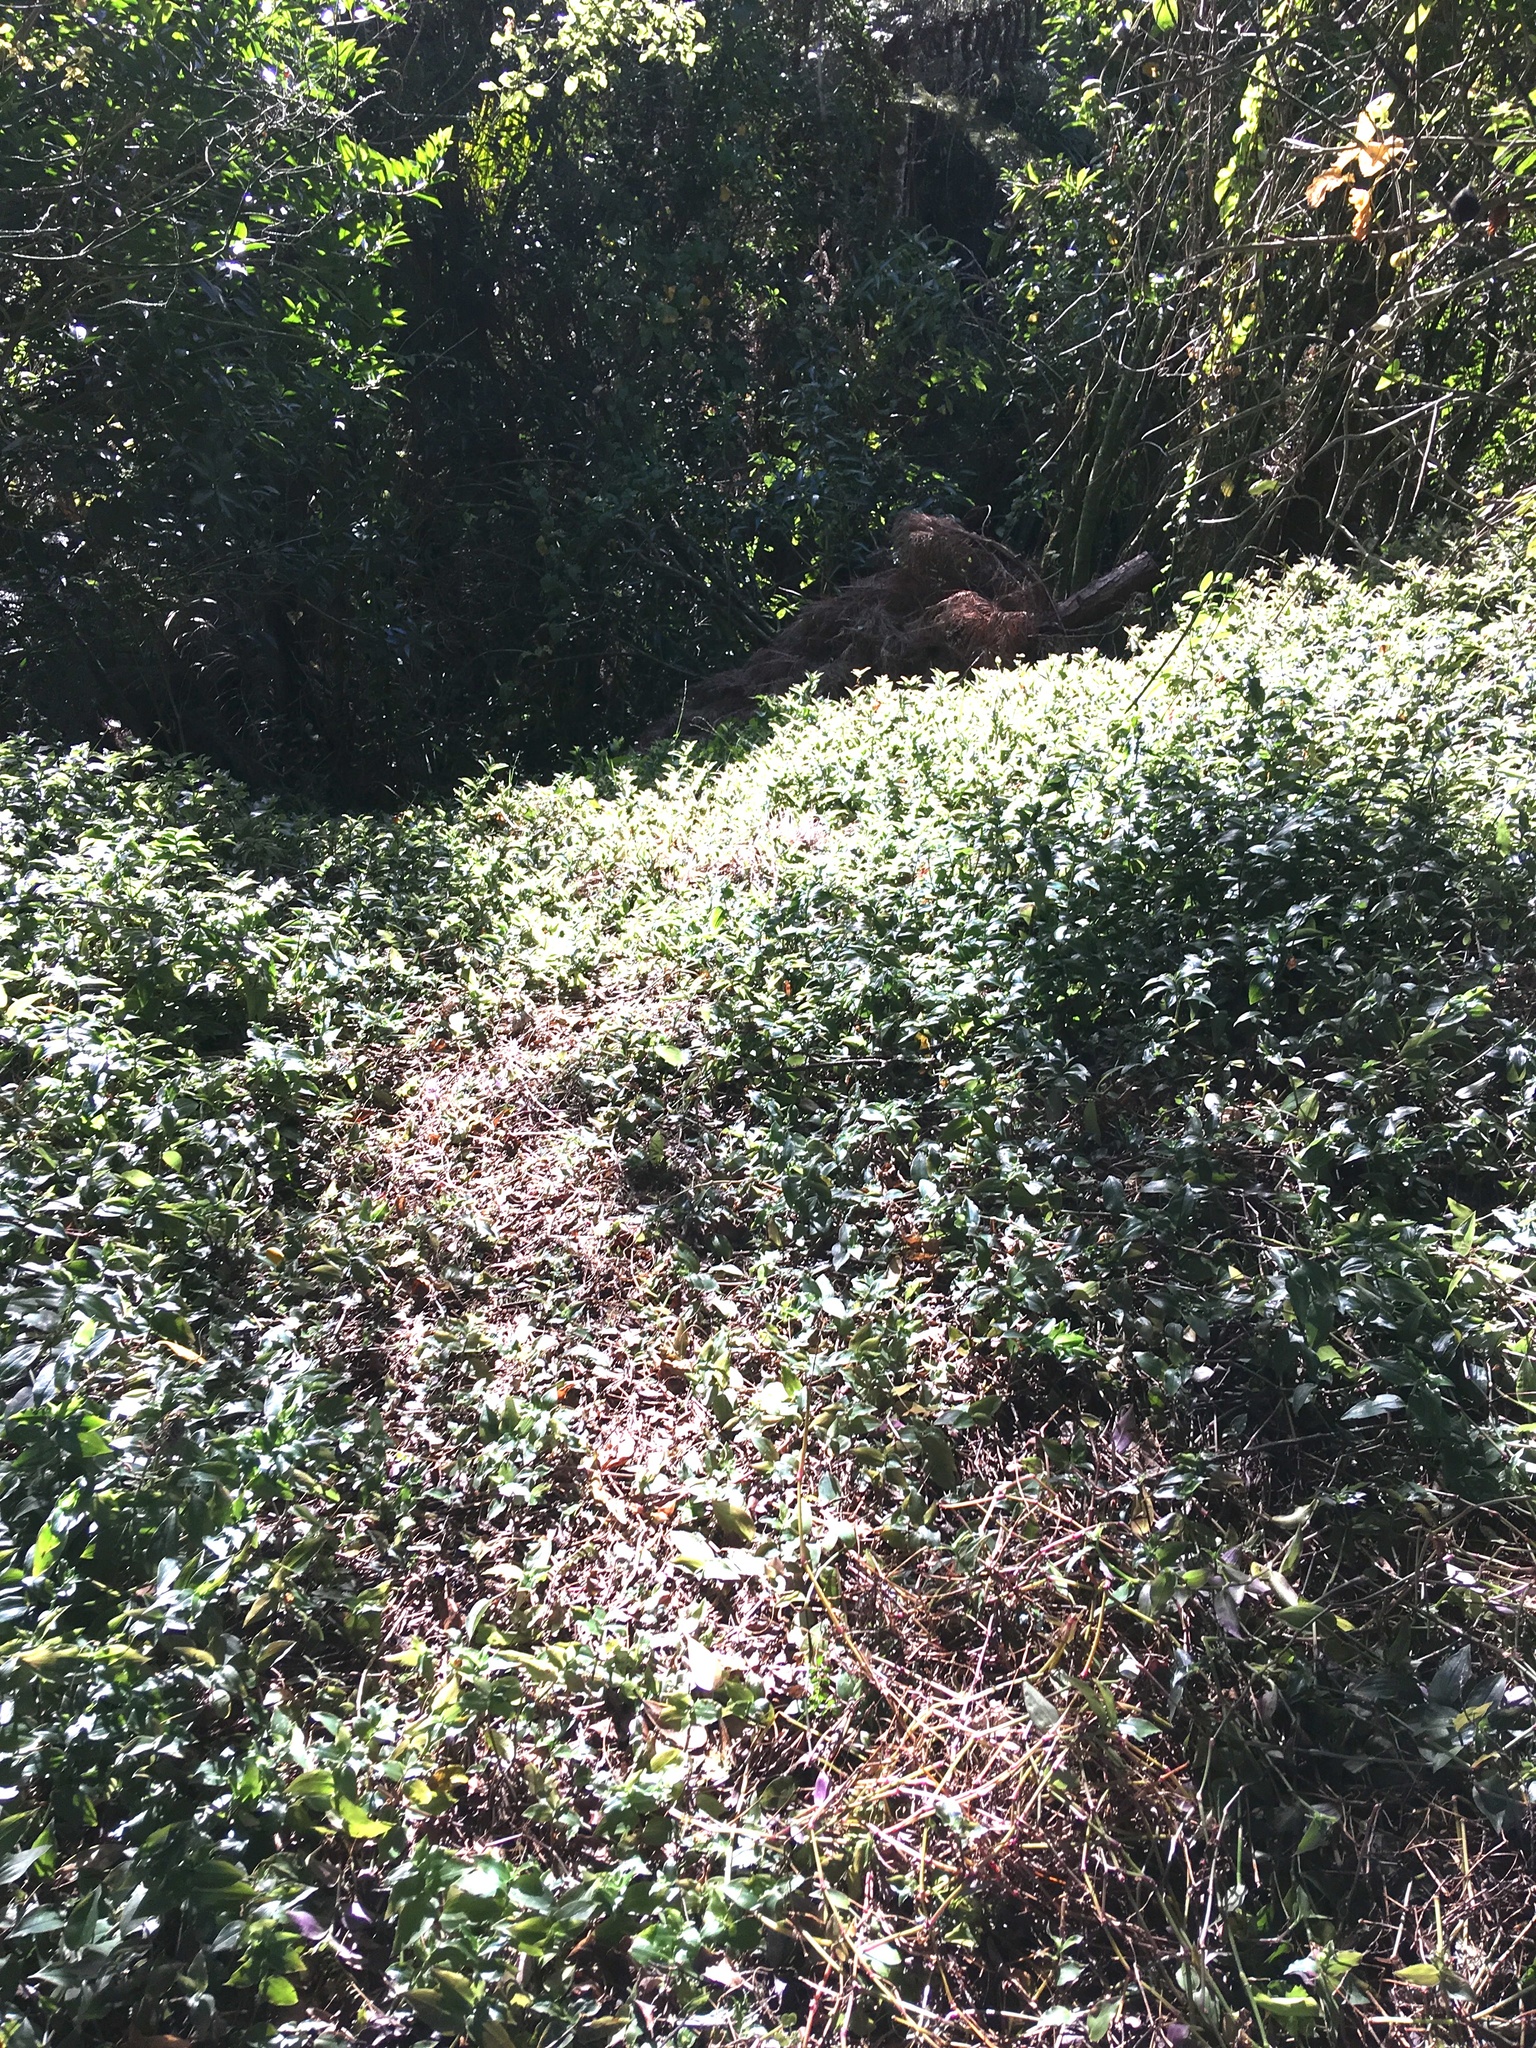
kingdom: Plantae
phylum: Tracheophyta
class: Liliopsida
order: Commelinales
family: Commelinaceae
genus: Tradescantia
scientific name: Tradescantia fluminensis
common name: Wandering-jew
